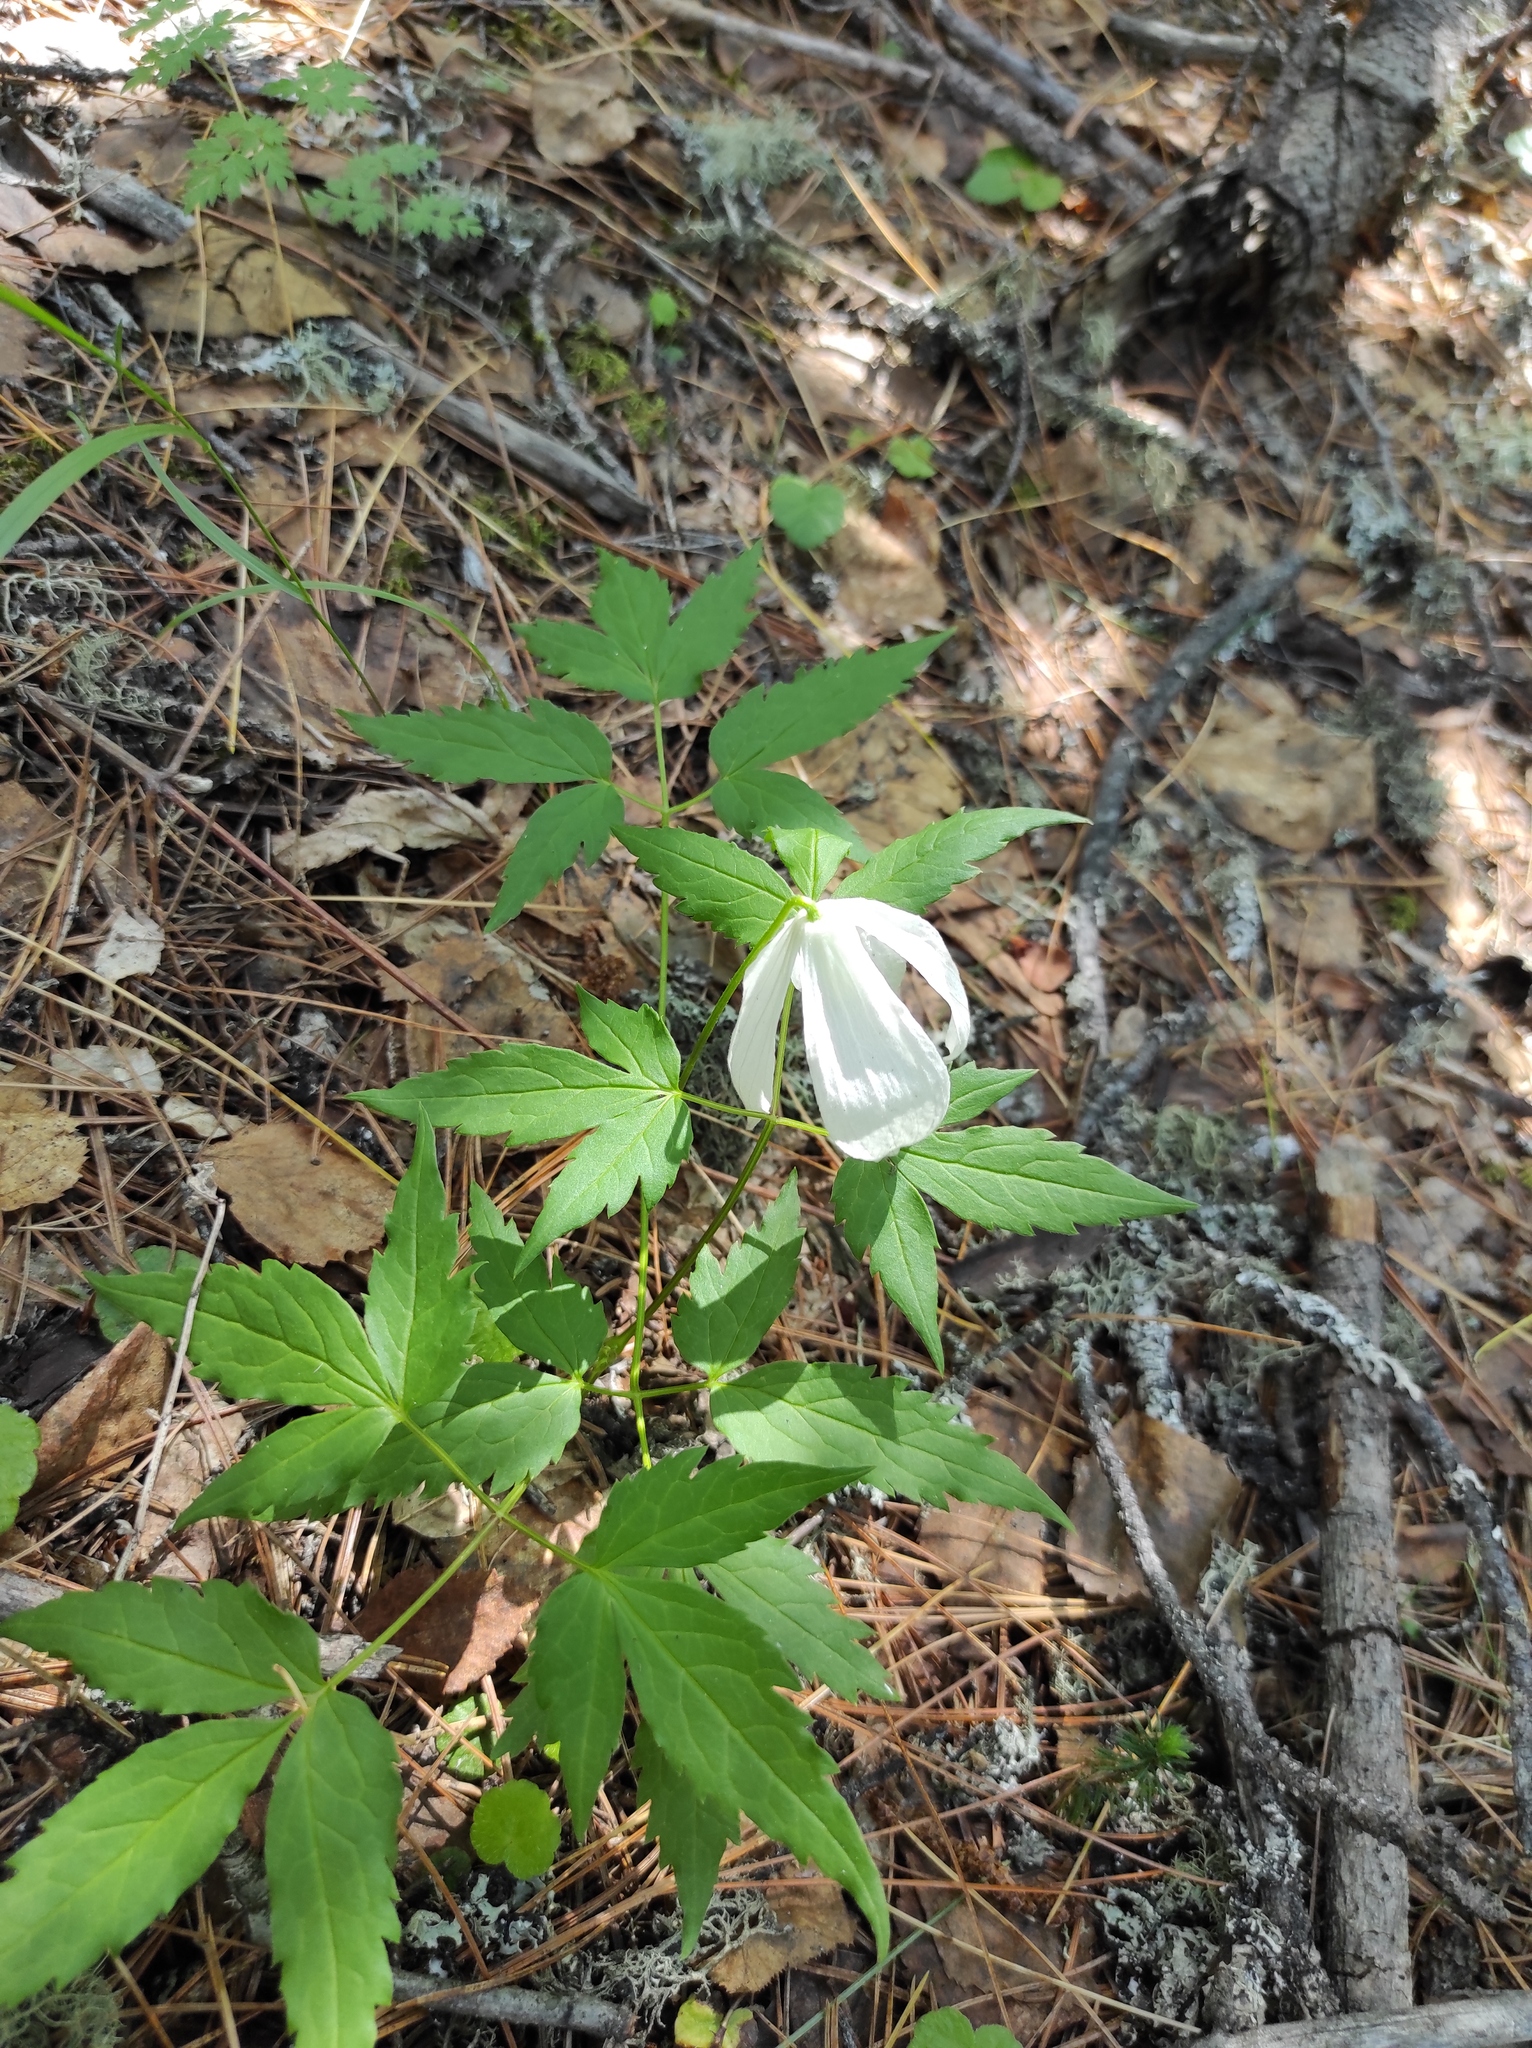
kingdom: Plantae
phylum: Tracheophyta
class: Magnoliopsida
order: Ranunculales
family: Ranunculaceae
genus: Clematis
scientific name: Clematis sibirica
